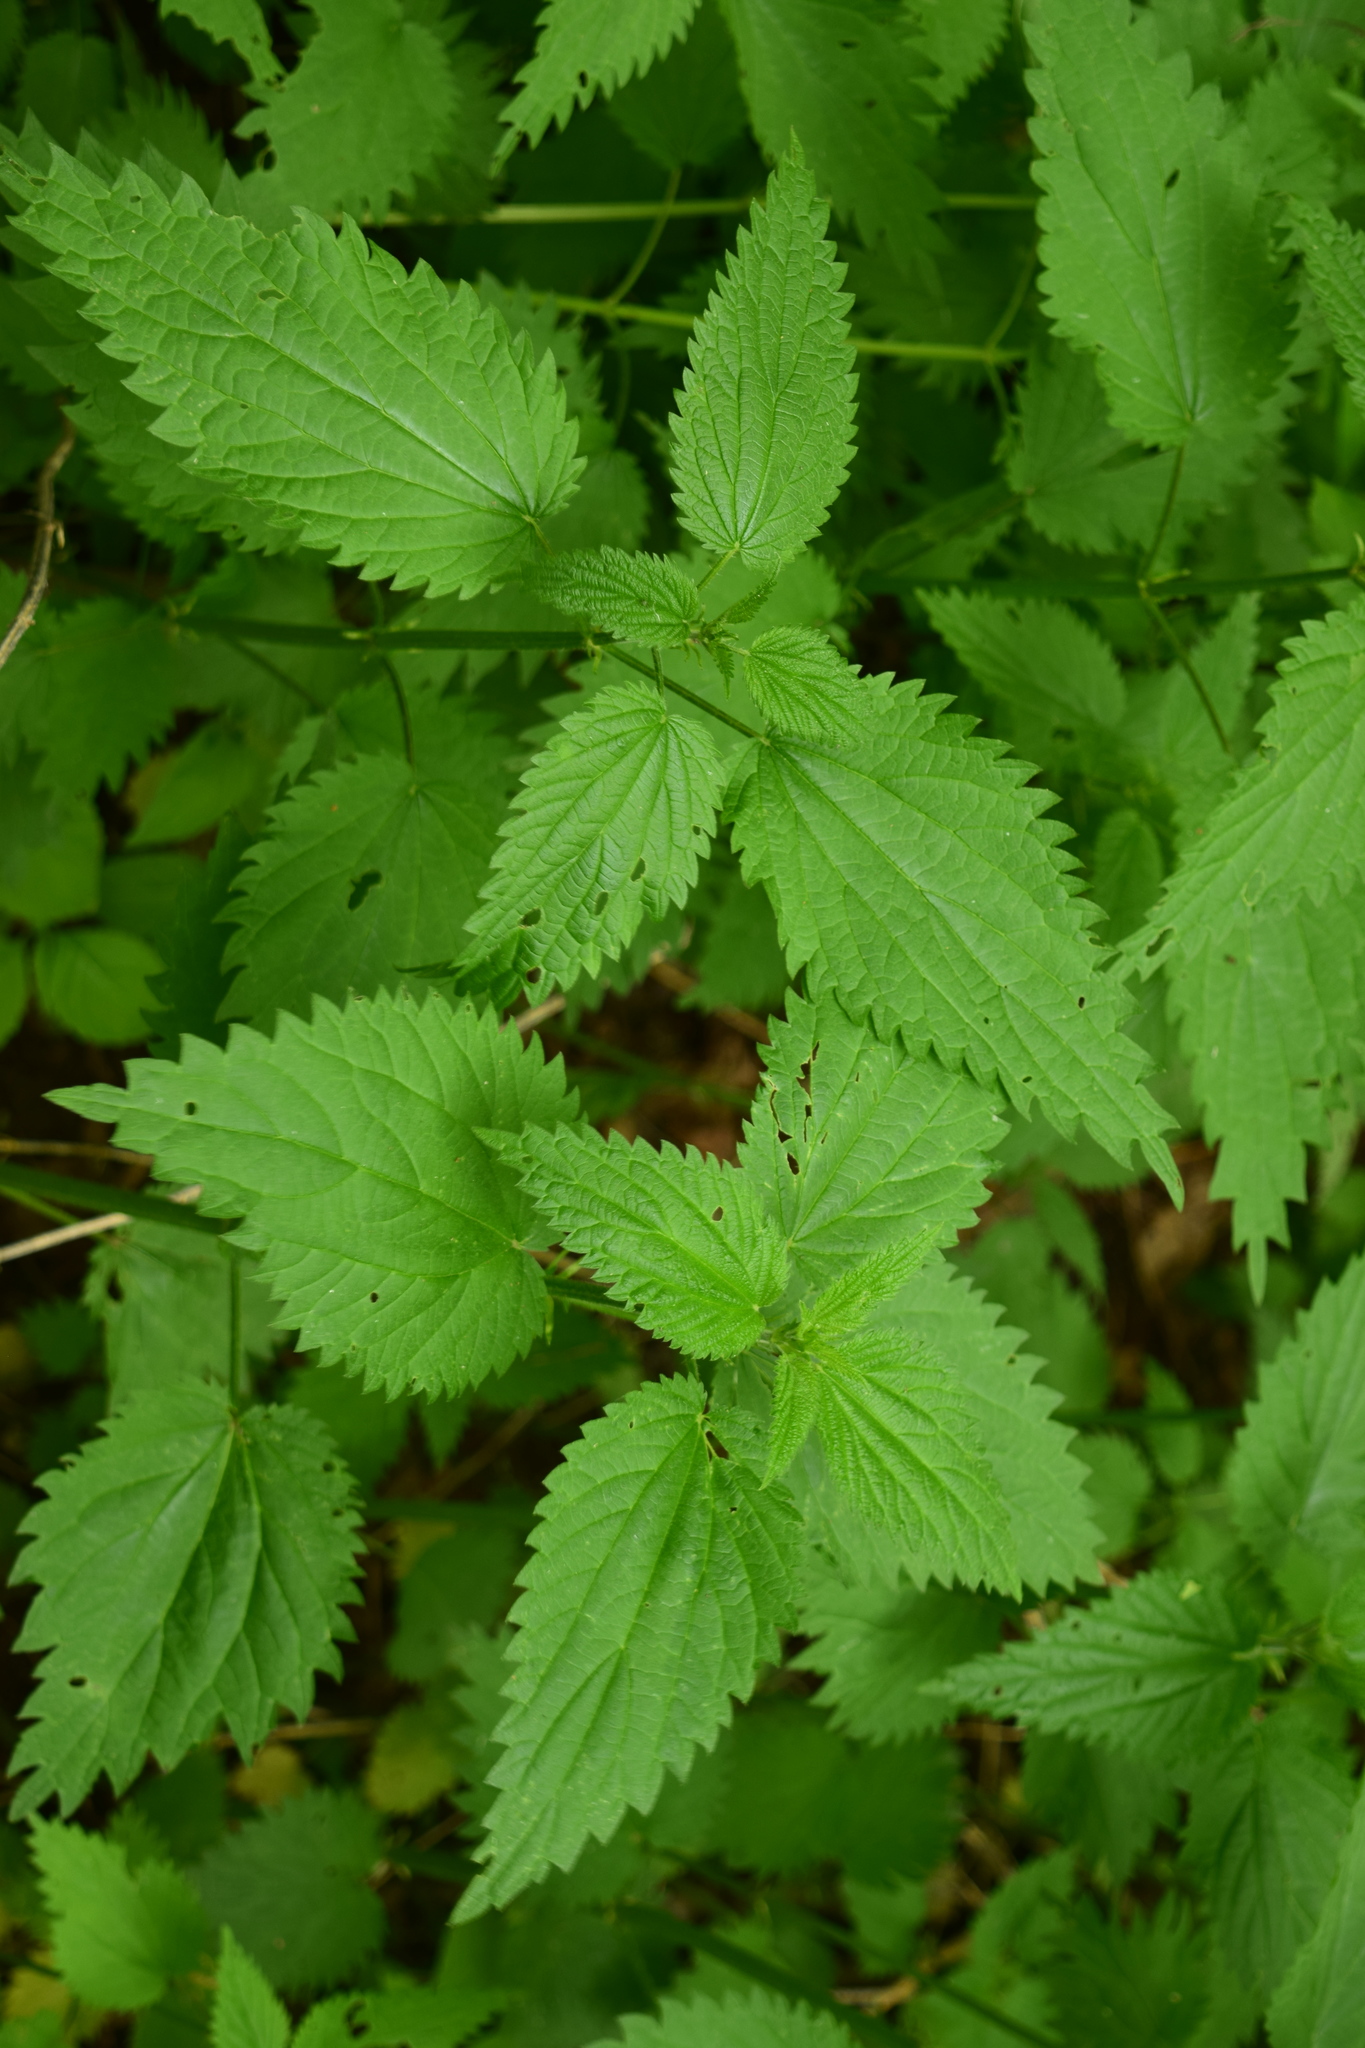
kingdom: Plantae
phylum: Tracheophyta
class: Magnoliopsida
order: Rosales
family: Urticaceae
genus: Urtica
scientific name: Urtica dioica
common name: Common nettle
